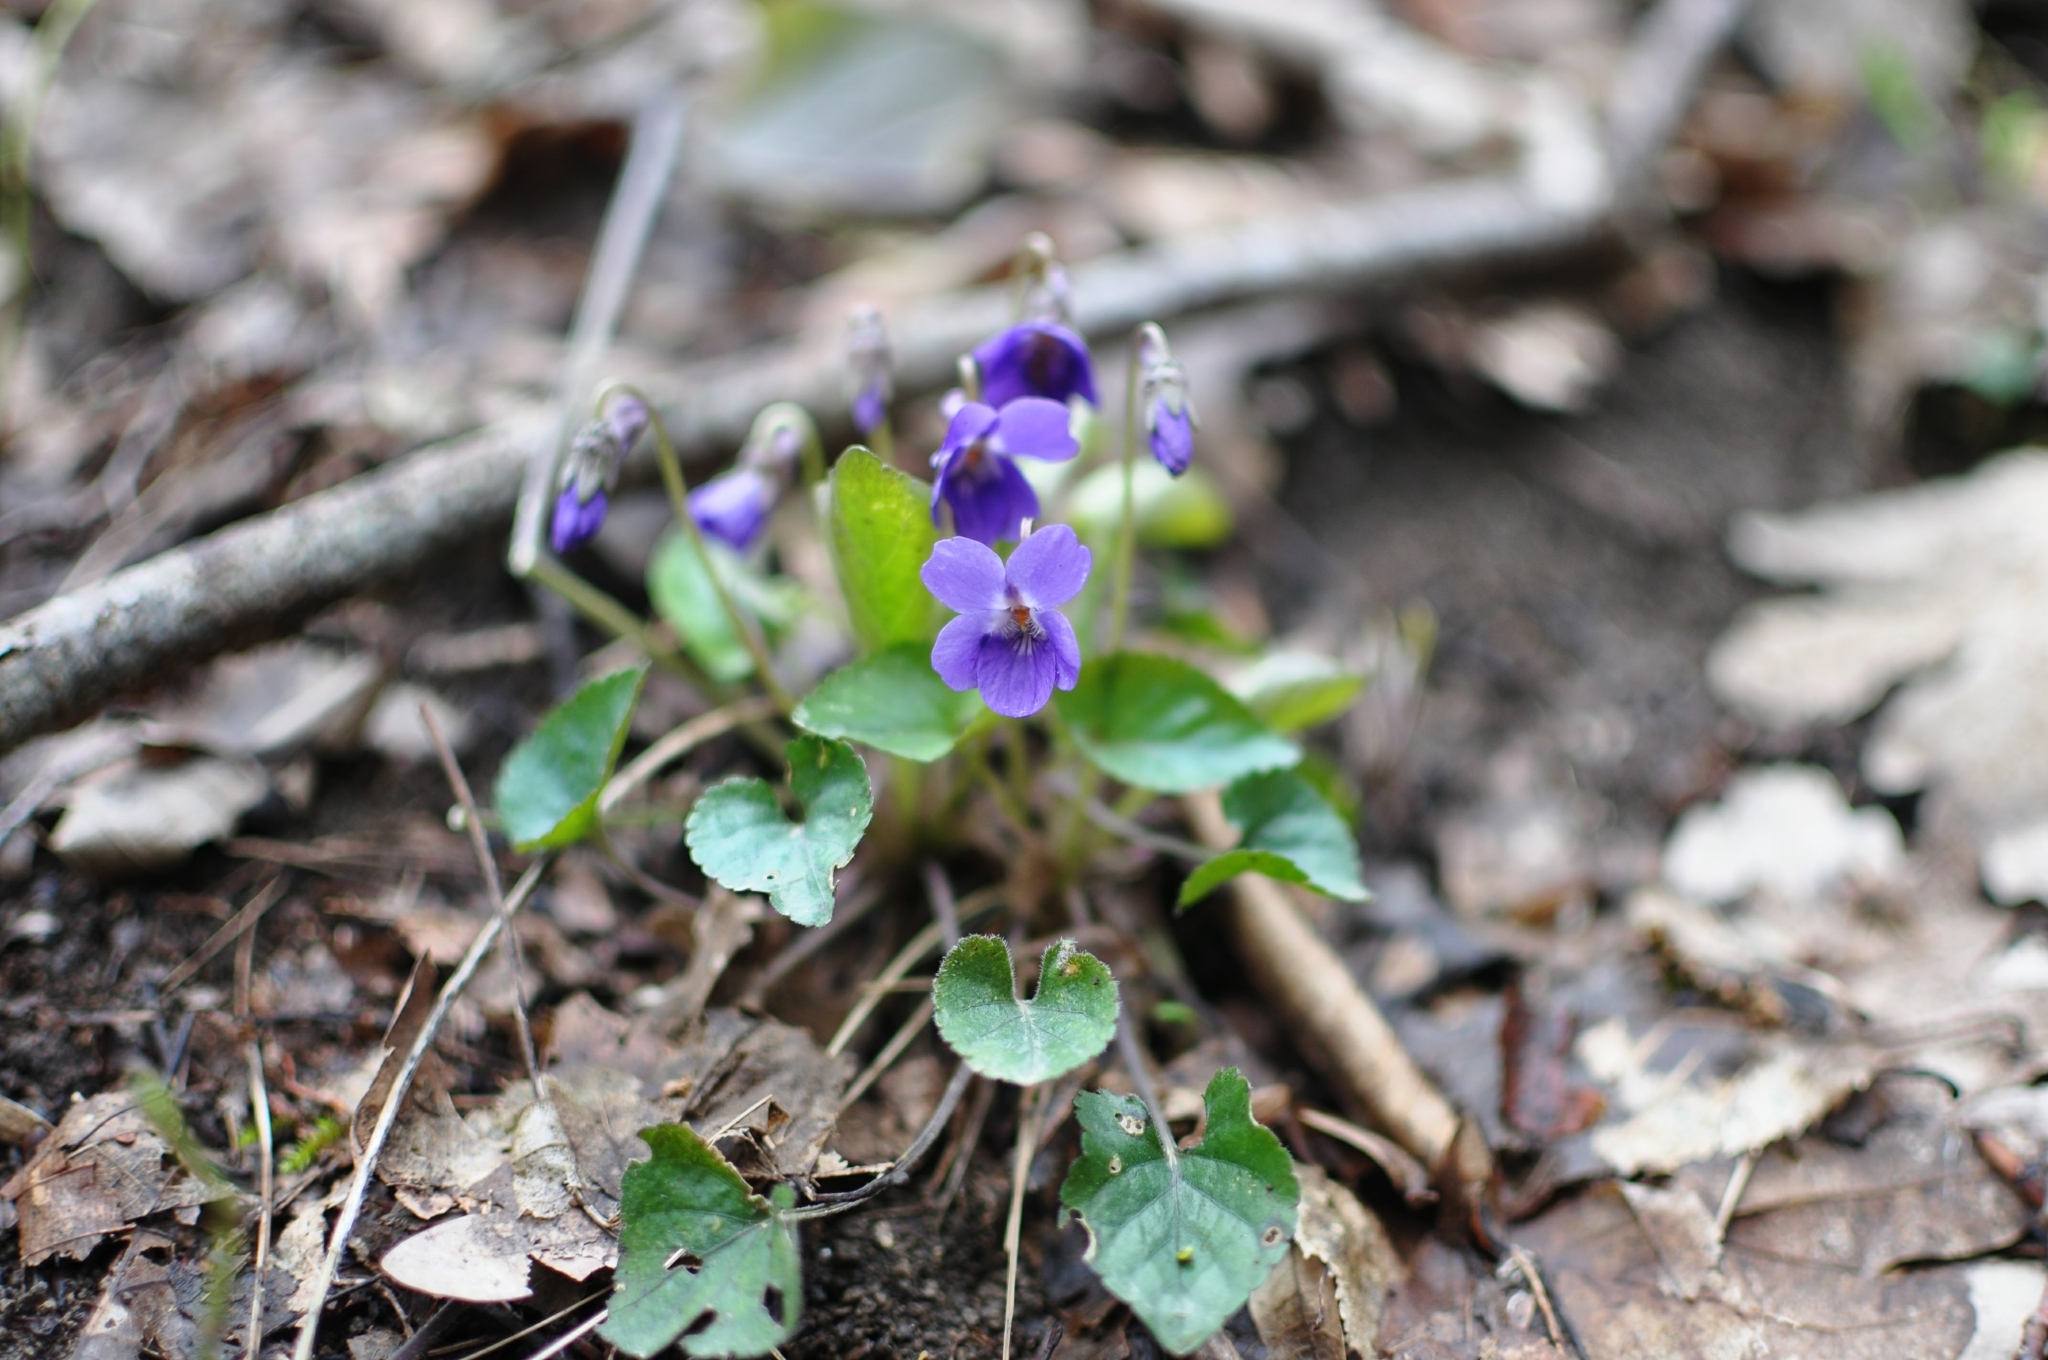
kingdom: Plantae
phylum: Tracheophyta
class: Magnoliopsida
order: Malpighiales
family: Violaceae
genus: Viola
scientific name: Viola alba
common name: White violet
